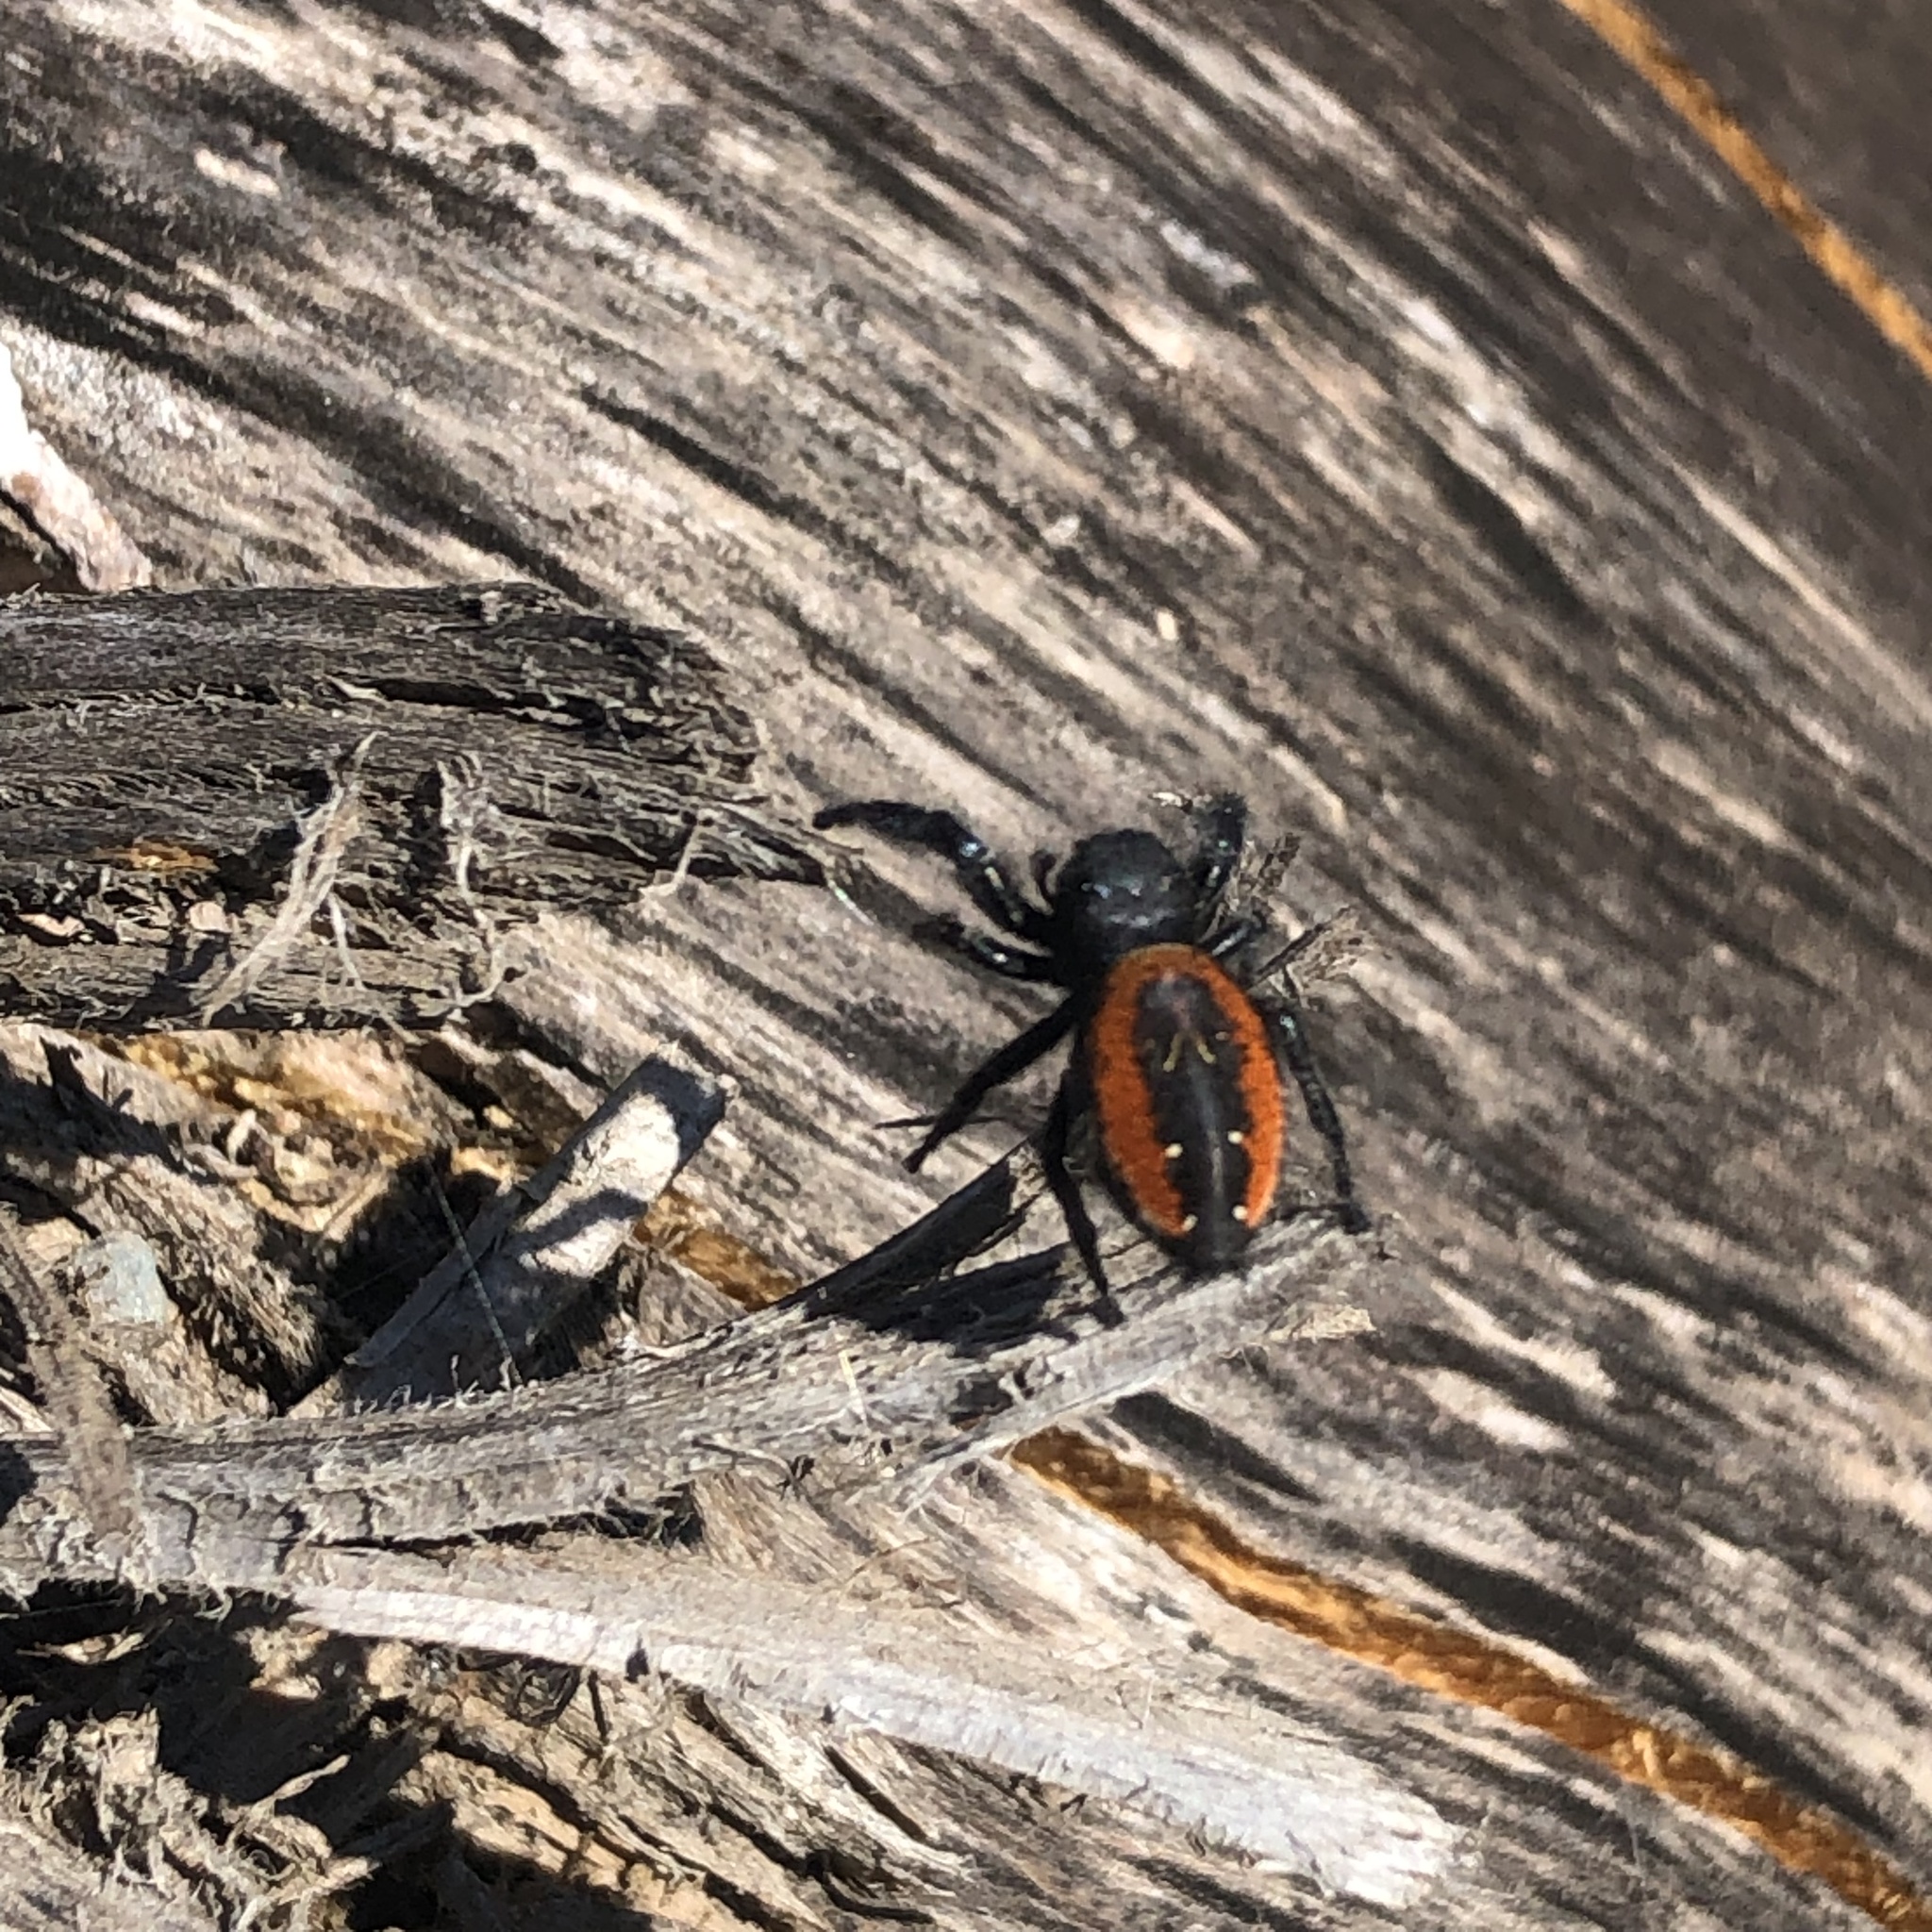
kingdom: Animalia
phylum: Arthropoda
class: Arachnida
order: Araneae
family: Salticidae
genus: Phidippus
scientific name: Phidippus johnsoni
